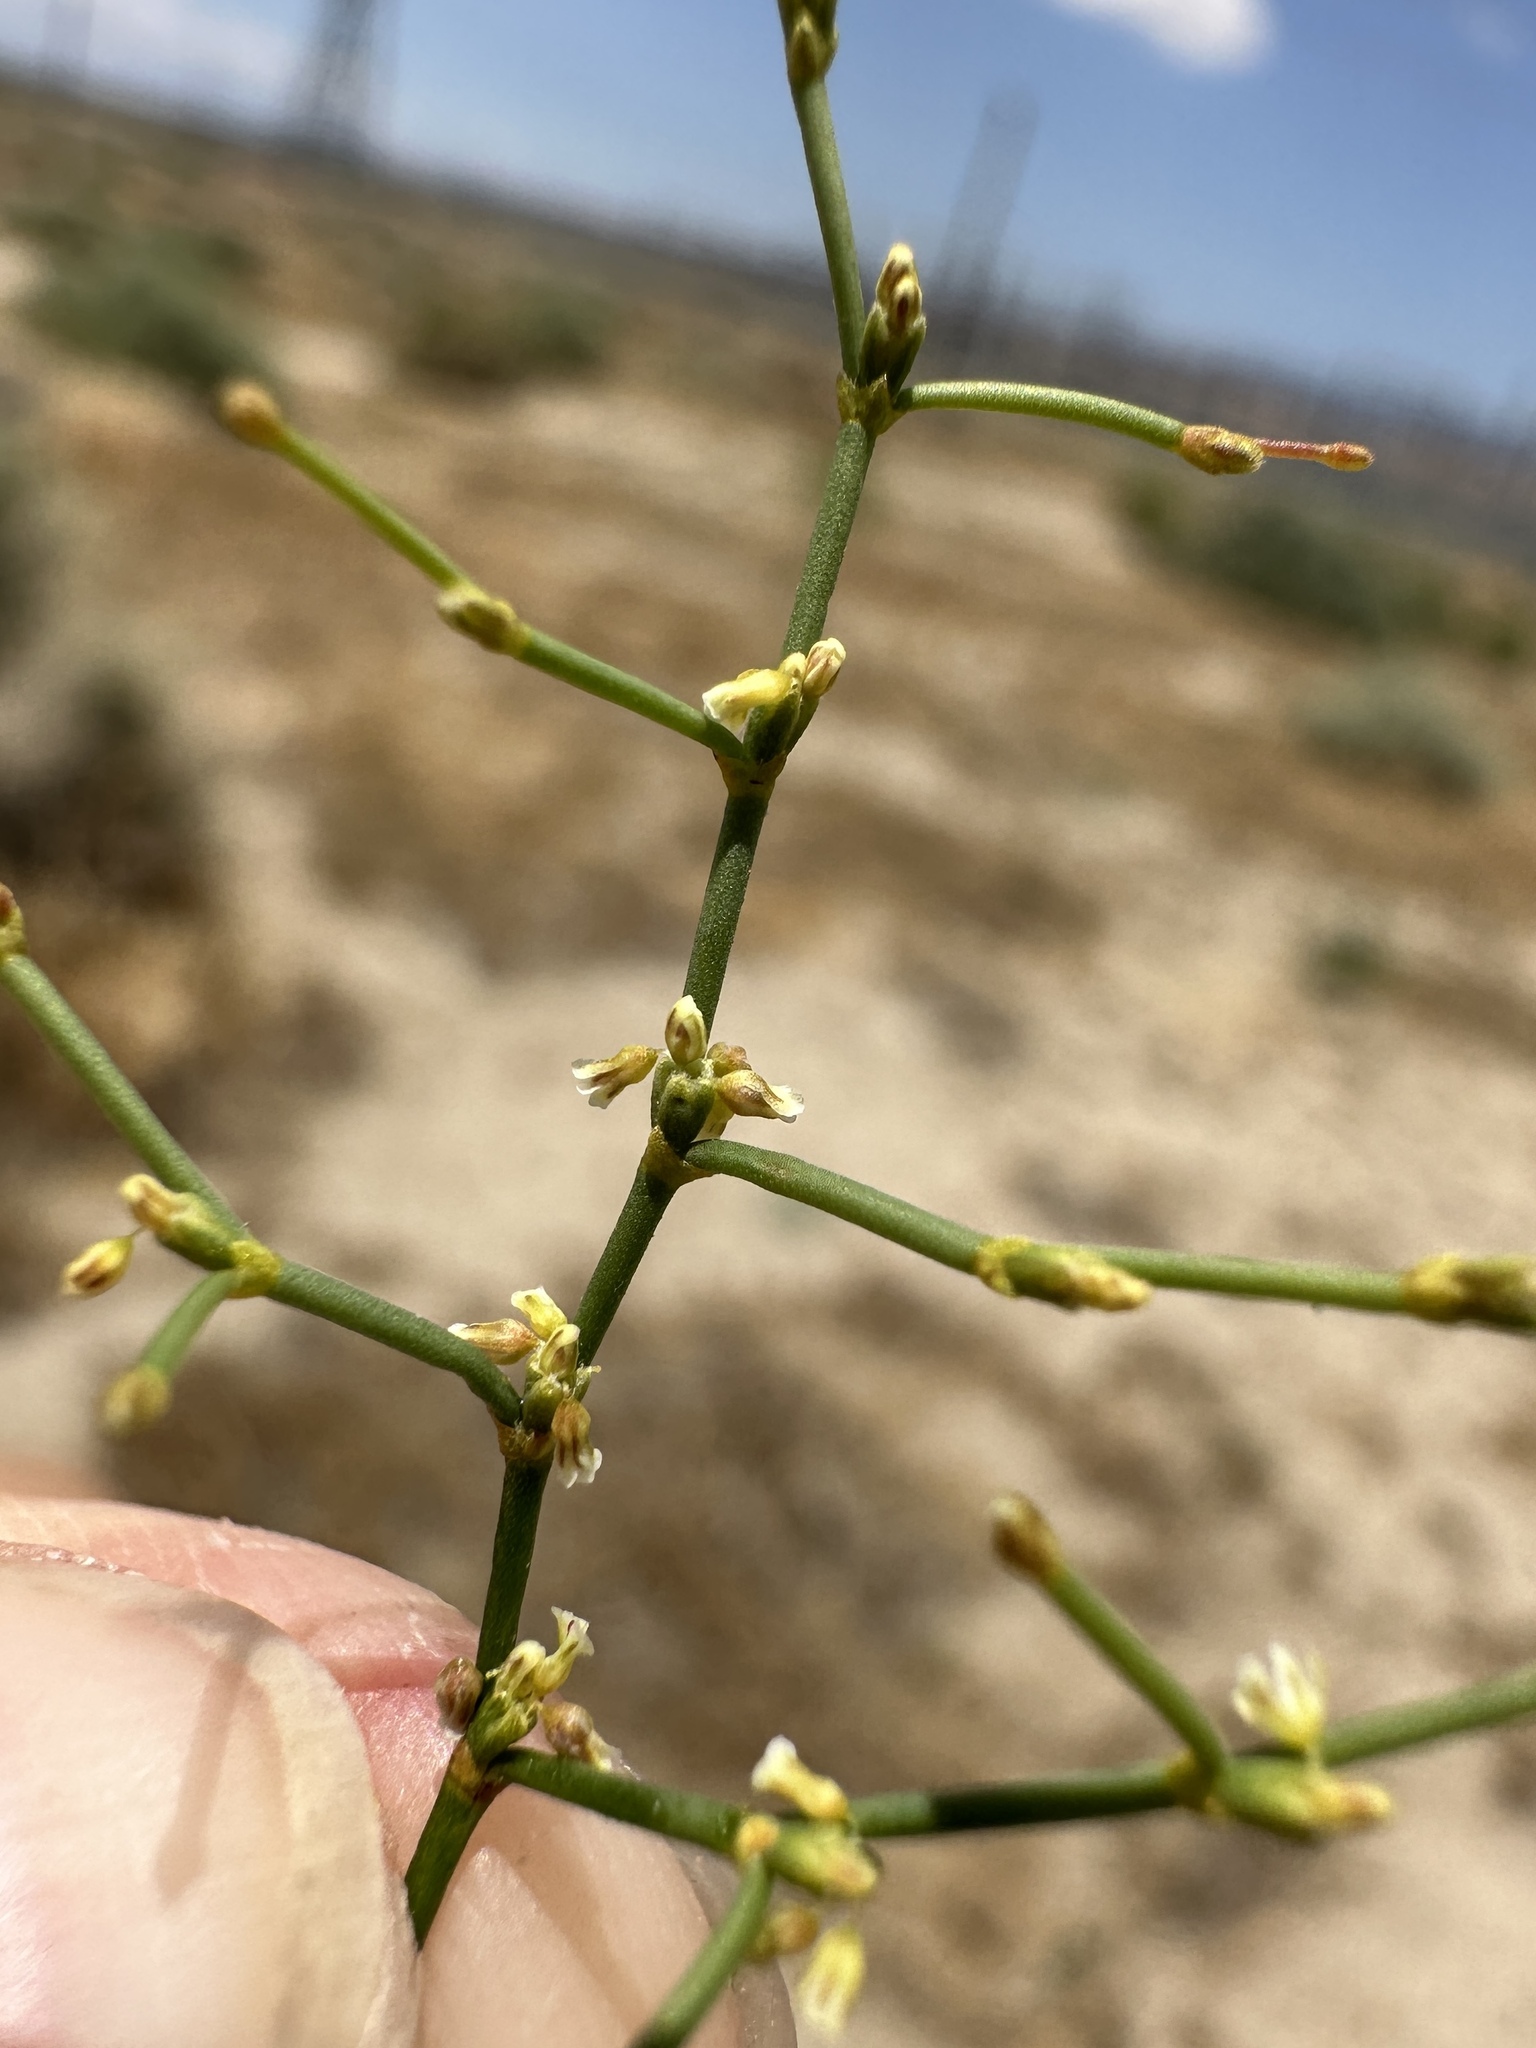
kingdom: Plantae
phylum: Tracheophyta
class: Magnoliopsida
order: Caryophyllales
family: Polygonaceae
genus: Eriogonum
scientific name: Eriogonum brachyanthum
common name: Short-flower wild buckwheat
